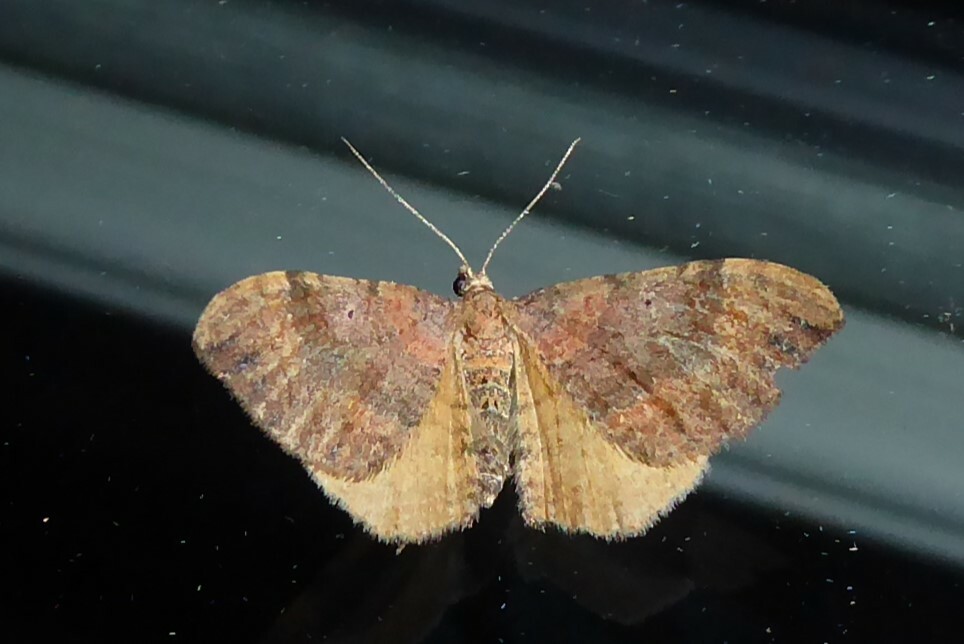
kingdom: Animalia
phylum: Arthropoda
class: Insecta
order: Lepidoptera
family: Geometridae
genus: Homodotis
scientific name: Homodotis megaspilata
